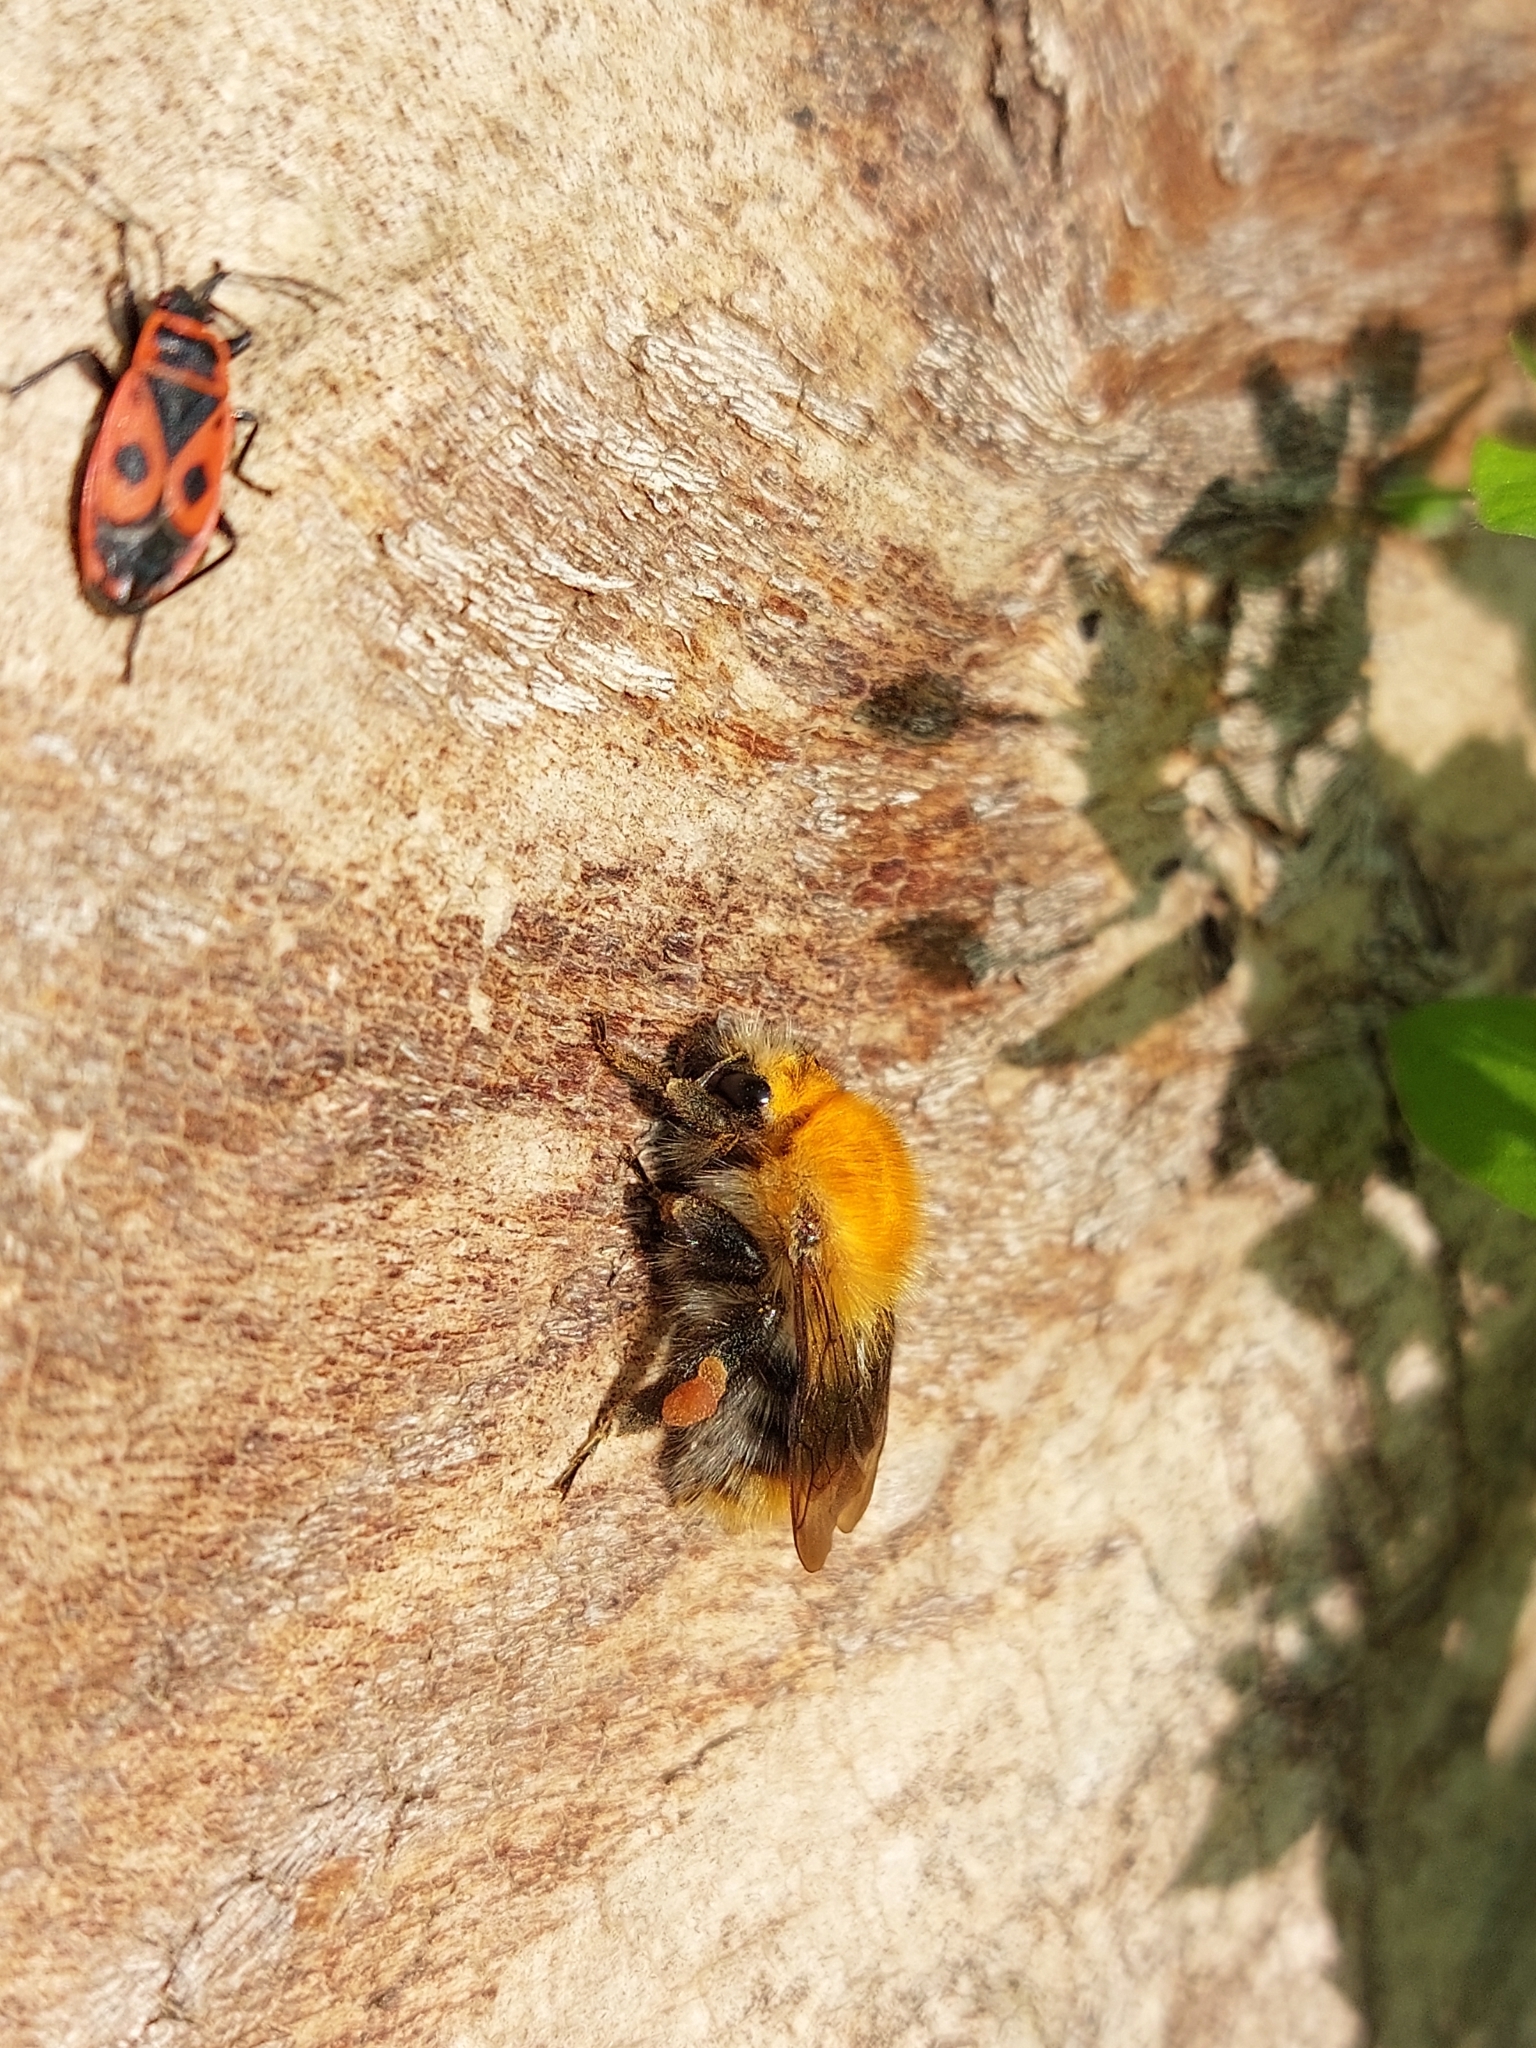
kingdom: Animalia
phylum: Arthropoda
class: Insecta
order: Hymenoptera
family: Apidae
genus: Bombus
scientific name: Bombus pascuorum
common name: Common carder bee
